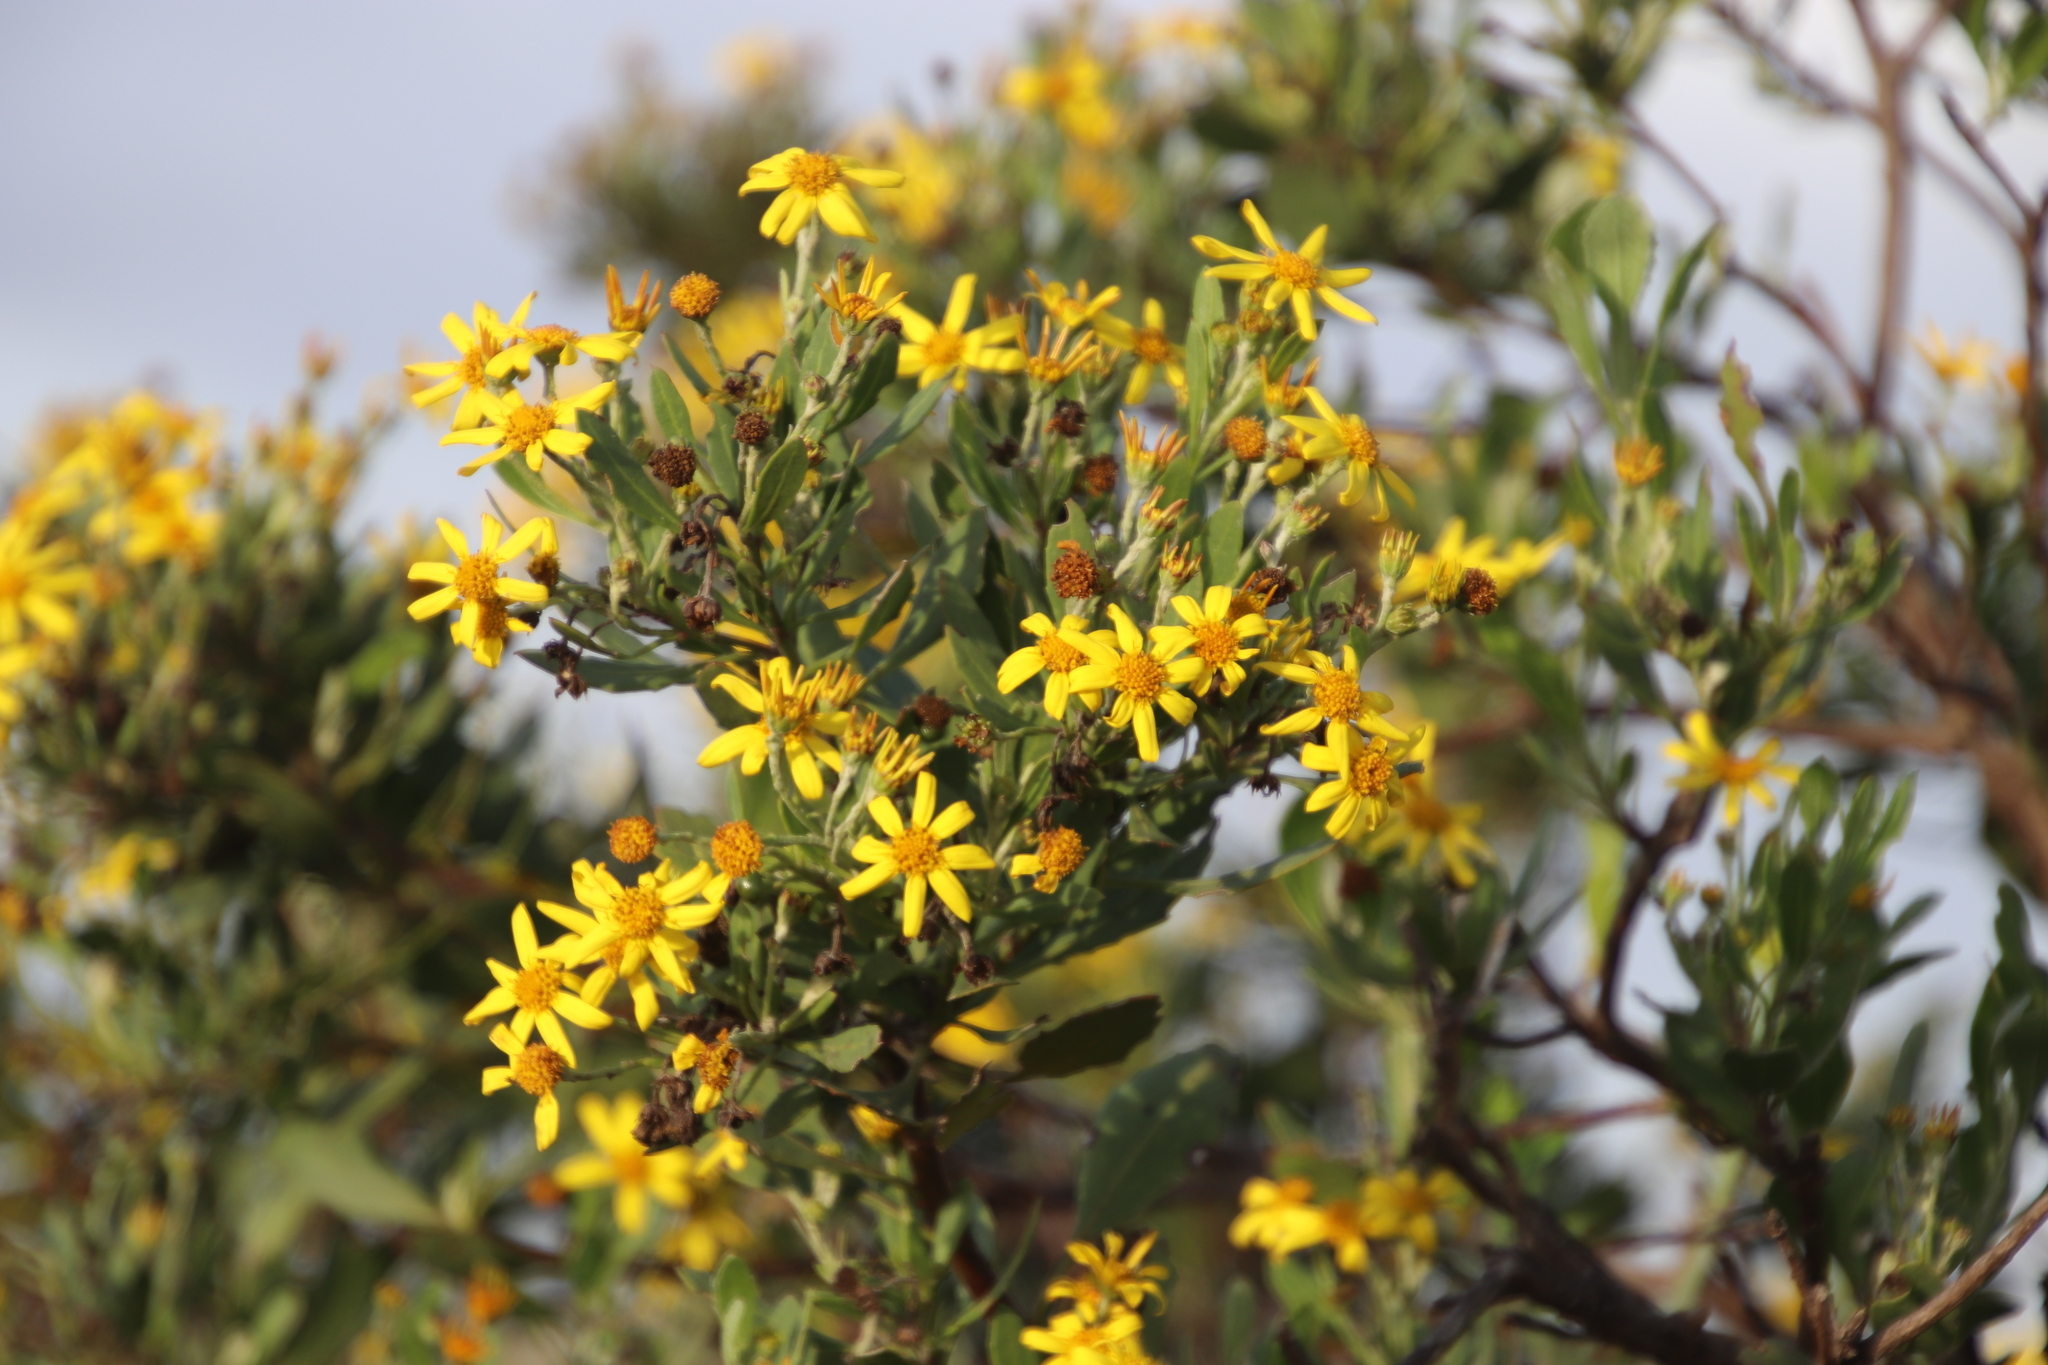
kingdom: Plantae
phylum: Tracheophyta
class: Magnoliopsida
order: Asterales
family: Asteraceae
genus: Osteospermum
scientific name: Osteospermum moniliferum
